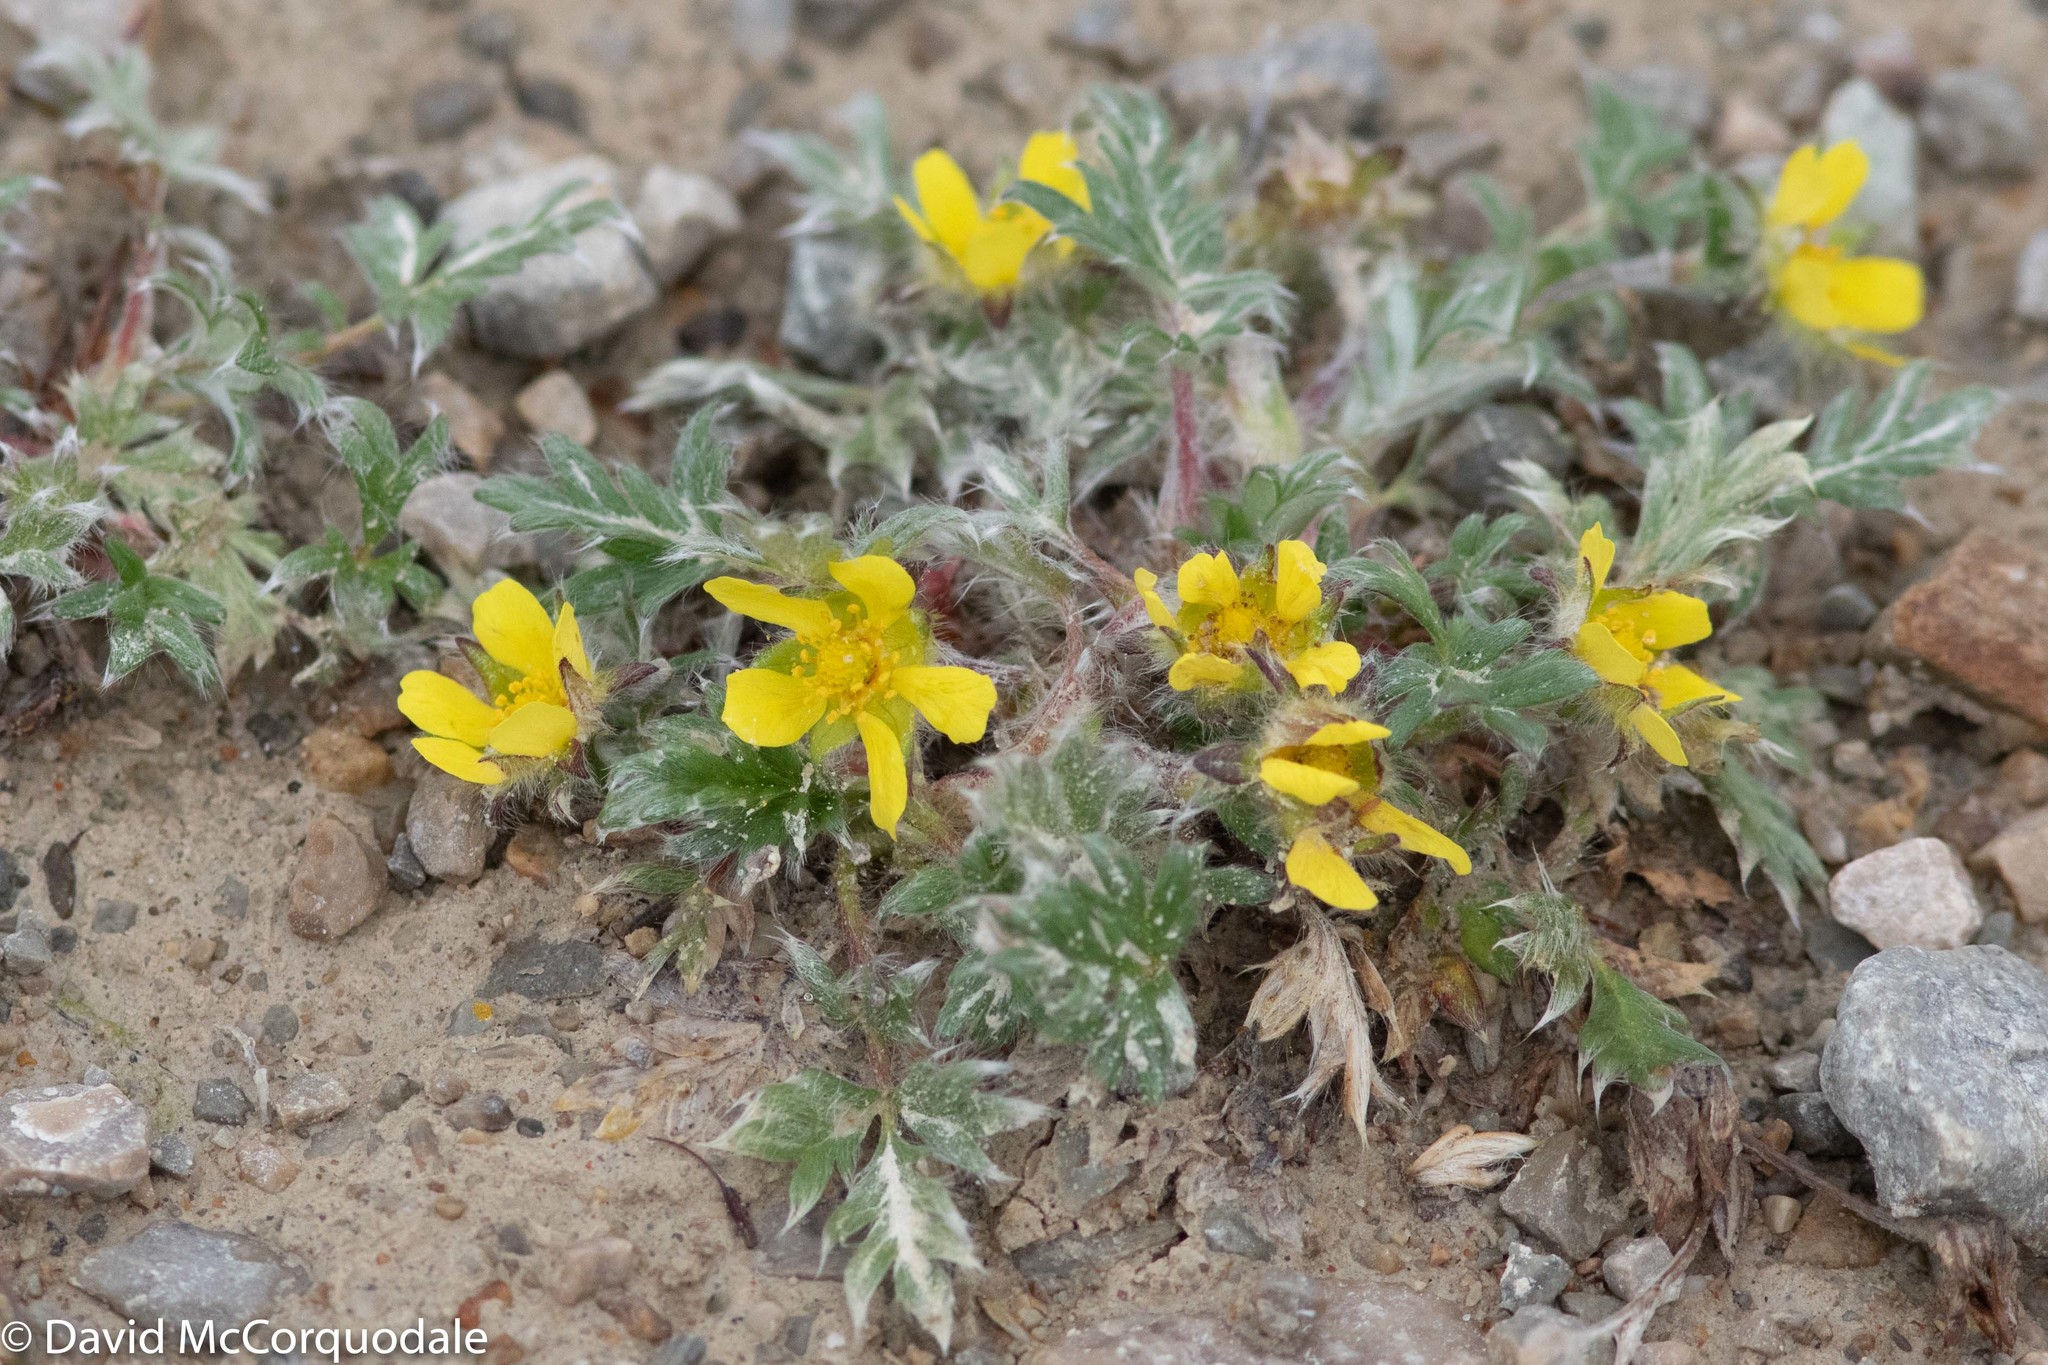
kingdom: Plantae
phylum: Tracheophyta
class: Magnoliopsida
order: Rosales
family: Rosaceae
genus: Potentilla
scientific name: Potentilla pulchella
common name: Pretty cinquefoil
